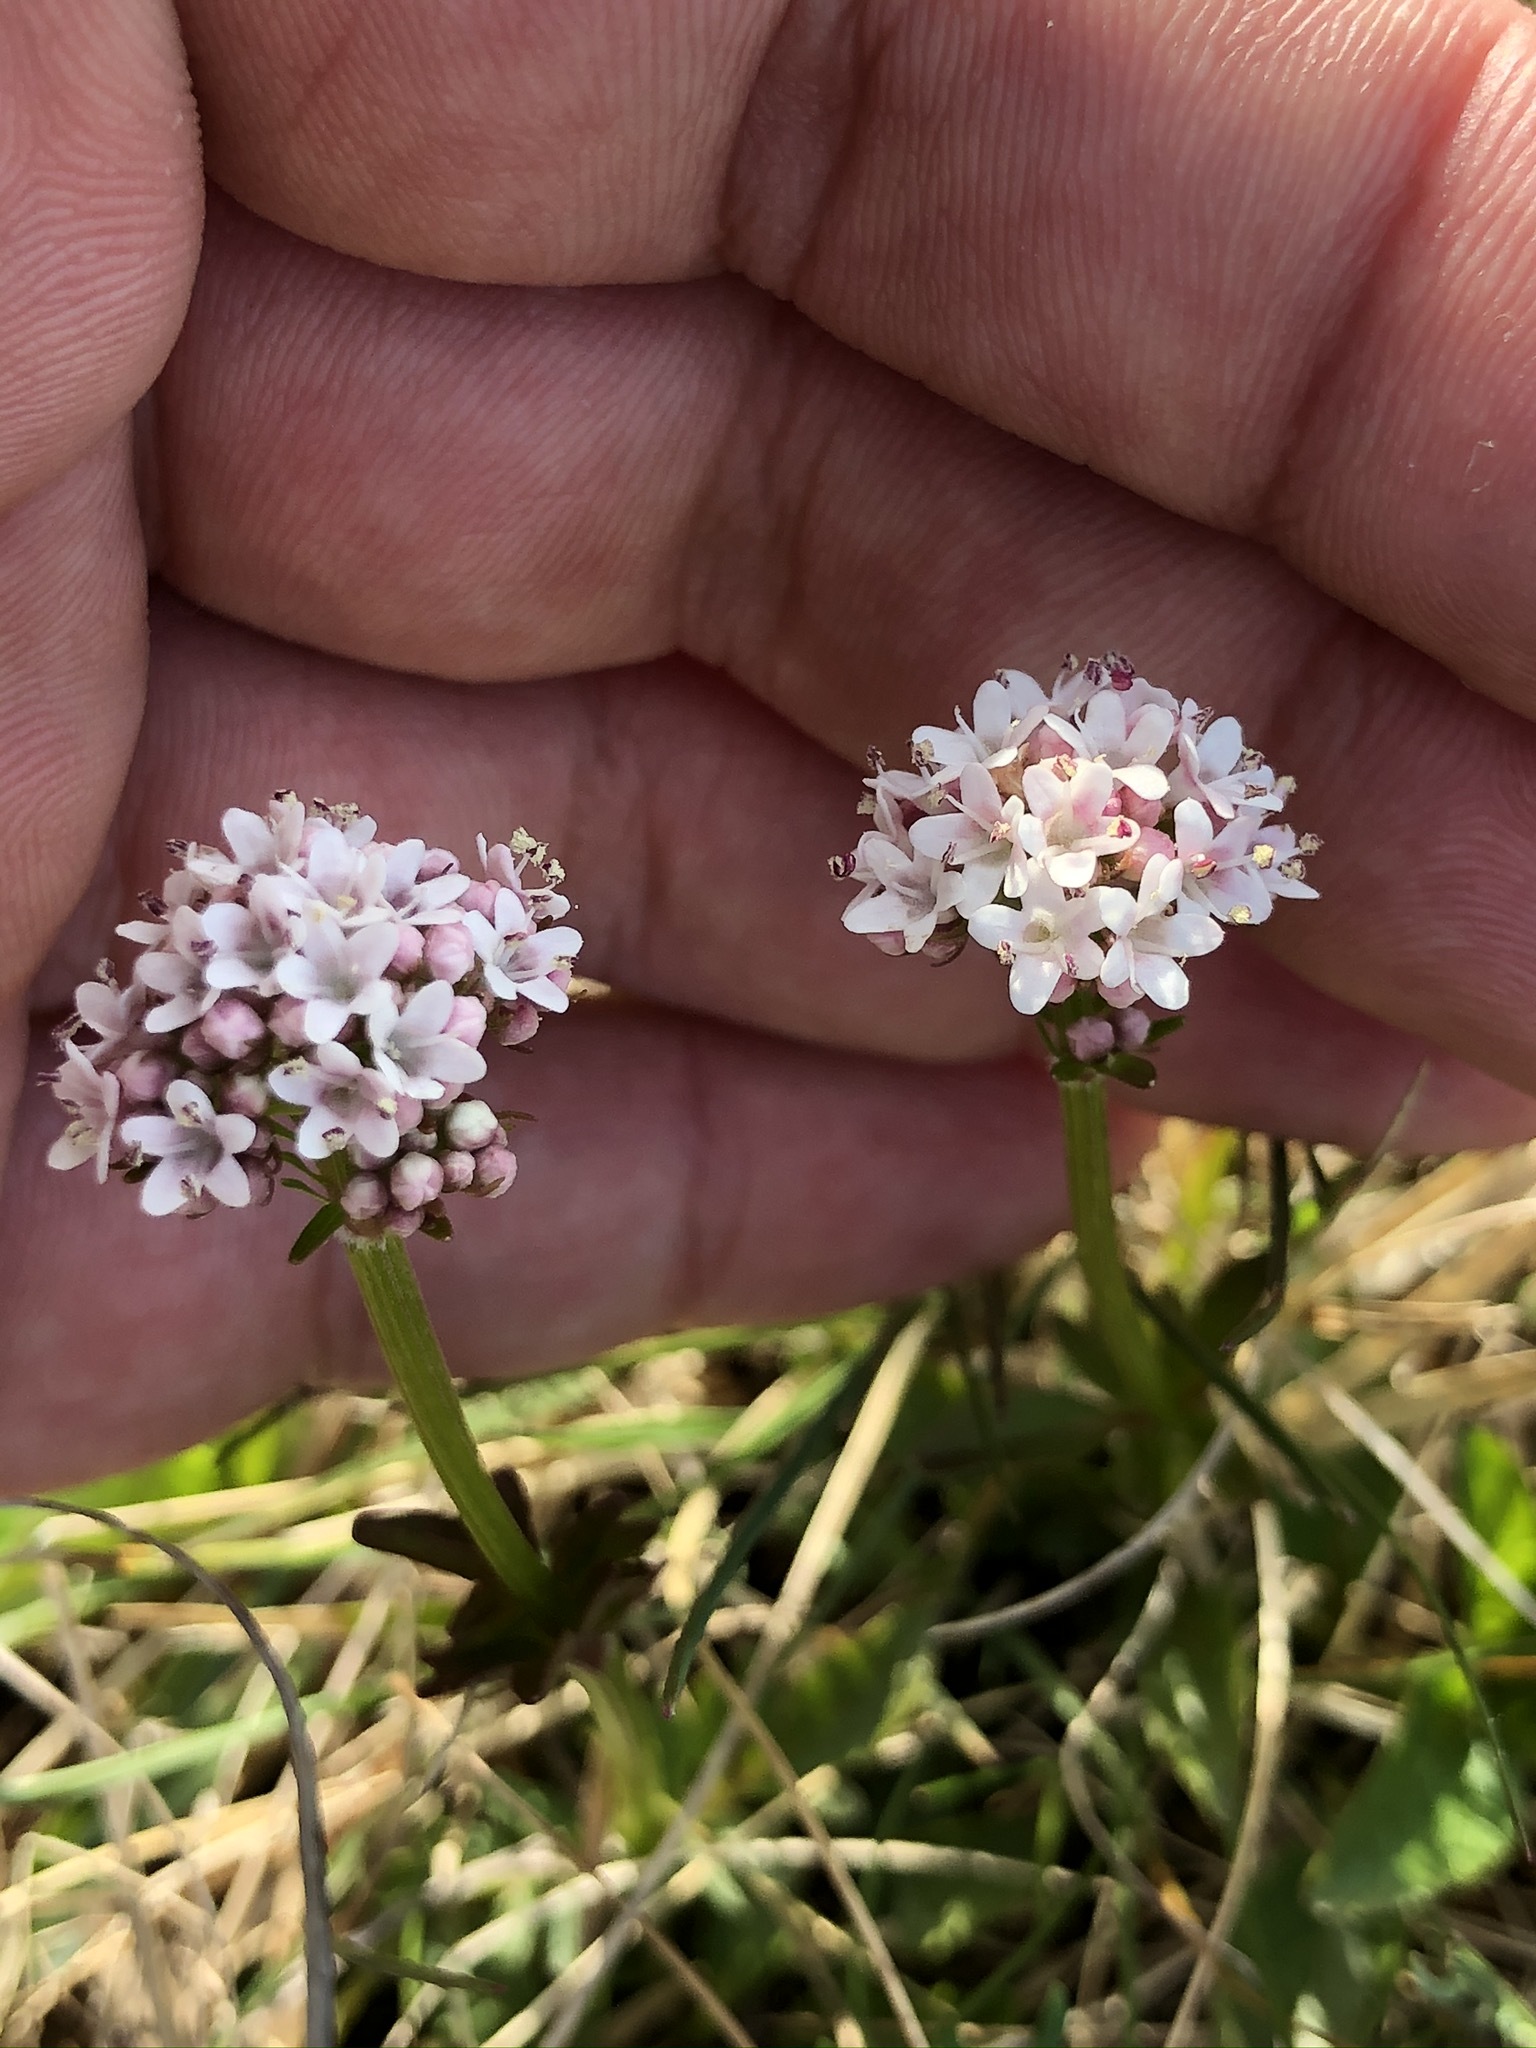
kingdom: Plantae
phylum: Tracheophyta
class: Magnoliopsida
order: Dipsacales
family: Caprifoliaceae
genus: Valeriana
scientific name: Valeriana dioica
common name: Marsh valerian
